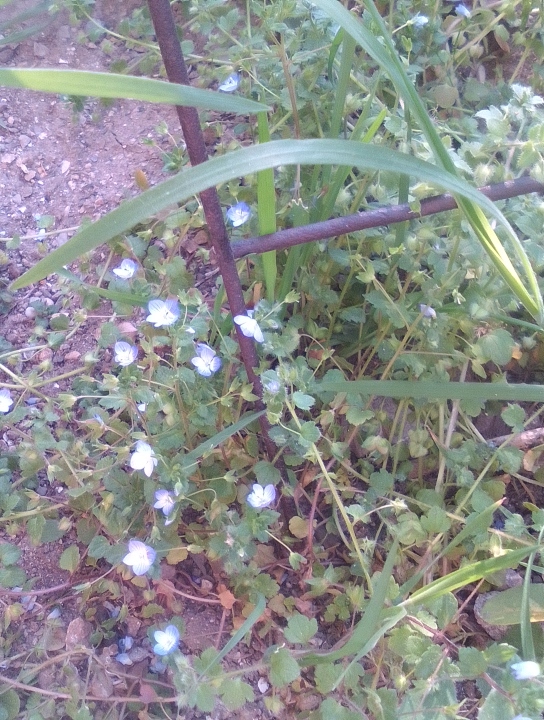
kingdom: Plantae
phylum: Tracheophyta
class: Magnoliopsida
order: Lamiales
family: Plantaginaceae
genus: Veronica
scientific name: Veronica hederifolia
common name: Ivy-leaved speedwell
